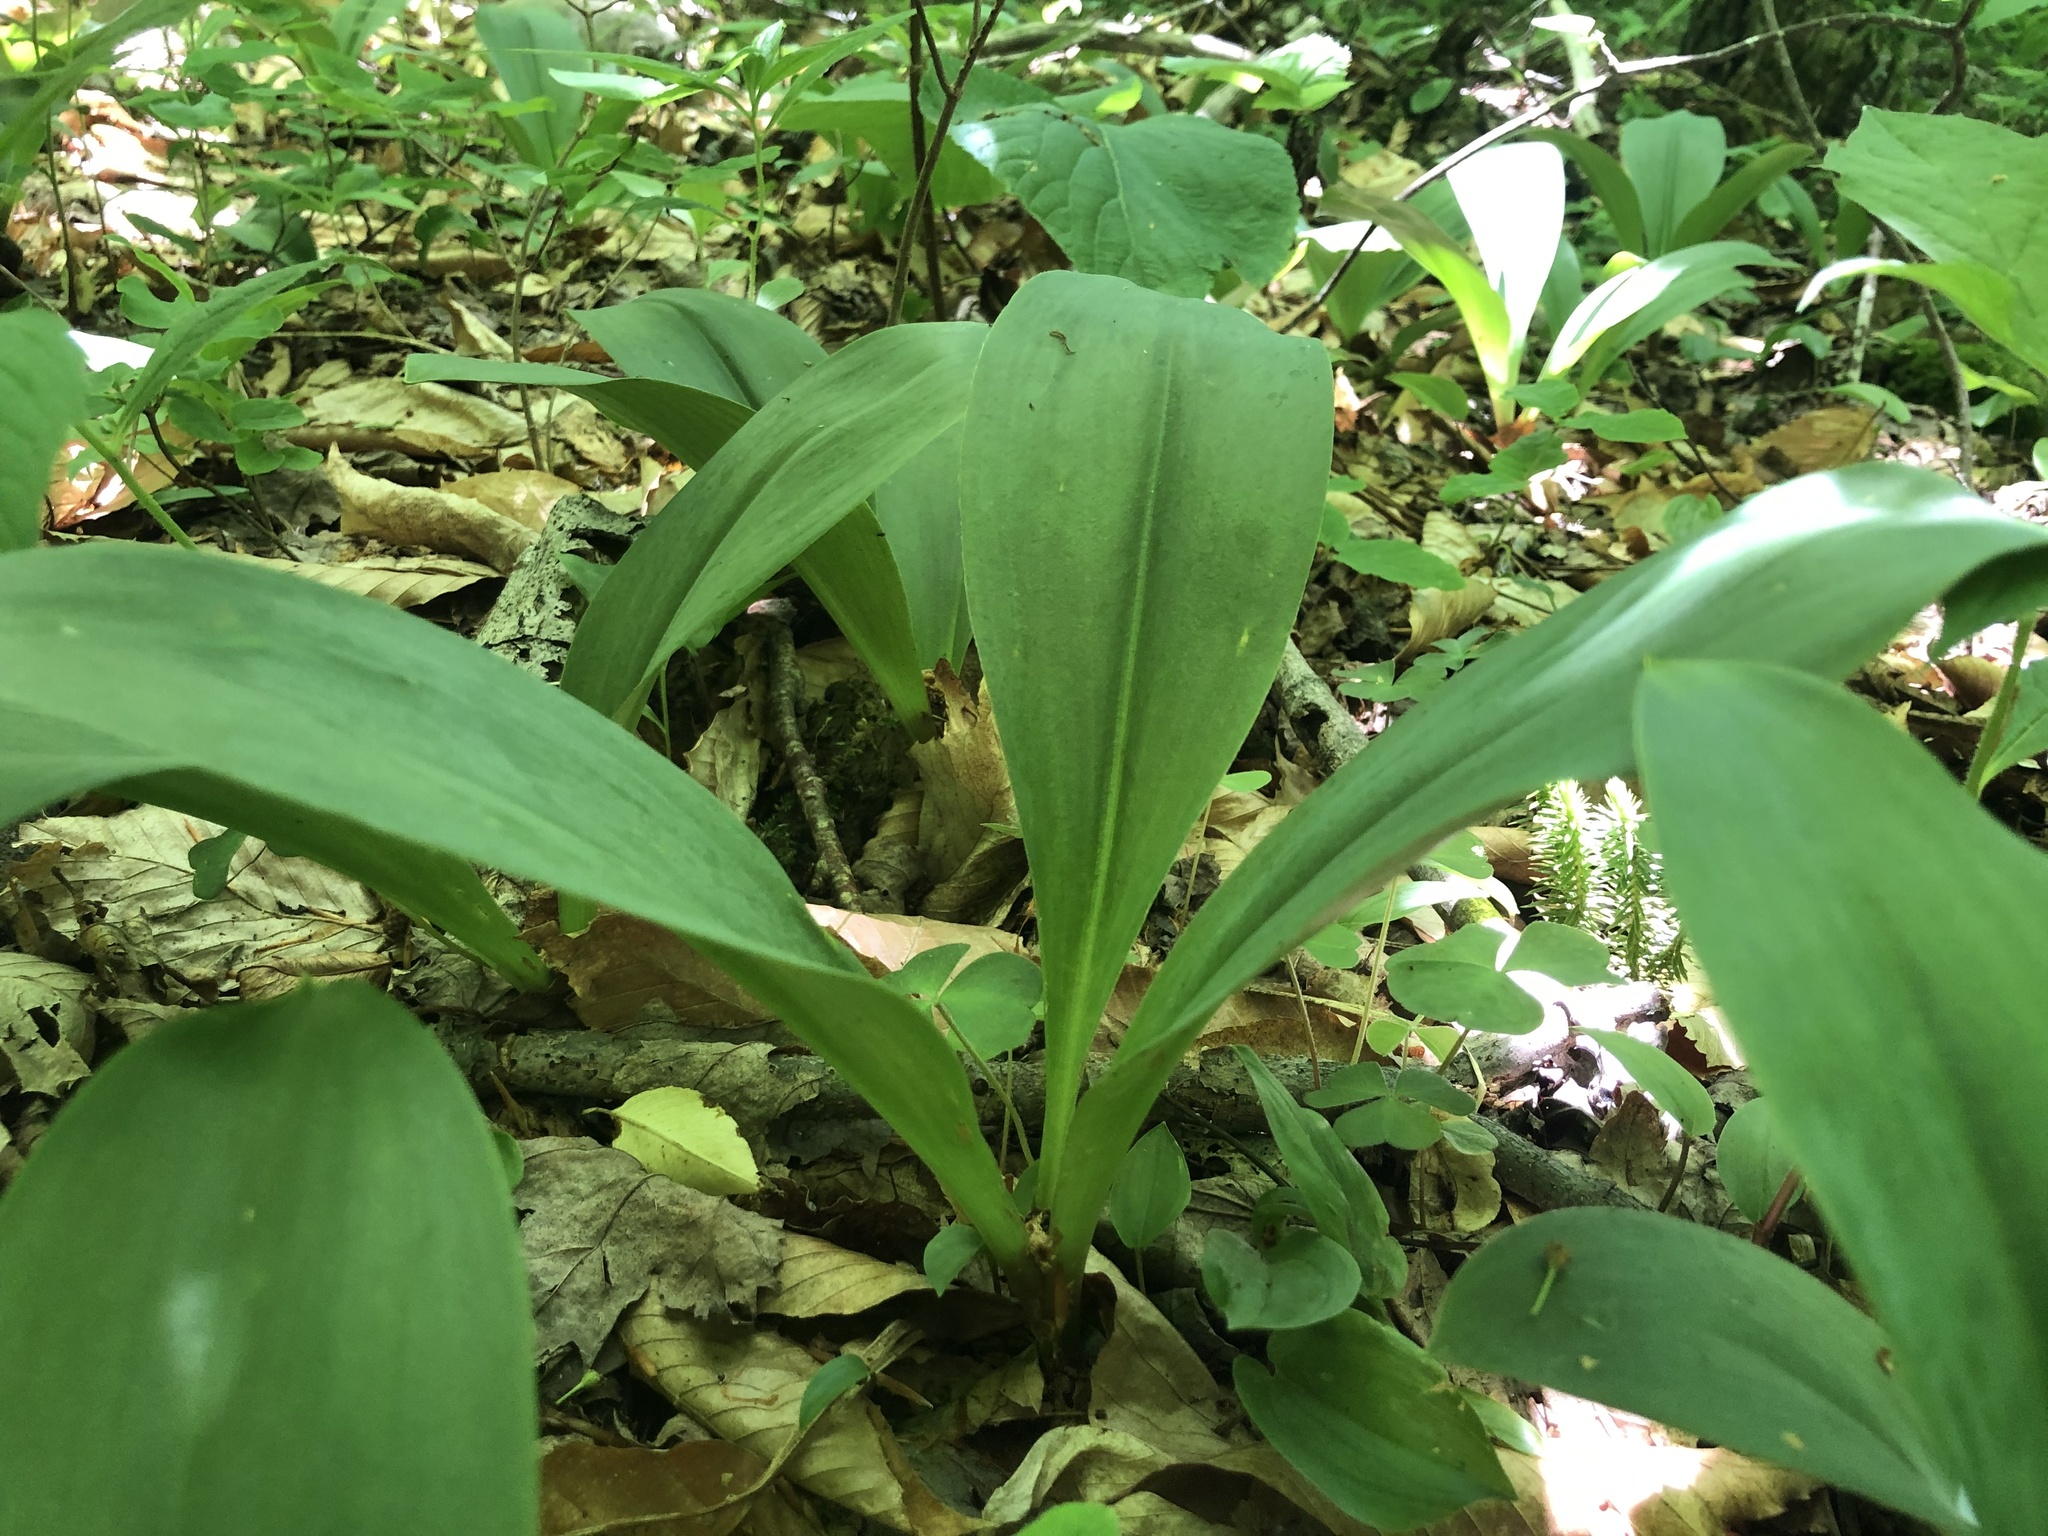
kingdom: Plantae
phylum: Tracheophyta
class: Liliopsida
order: Liliales
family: Liliaceae
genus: Clintonia
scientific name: Clintonia borealis
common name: Yellow clintonia
